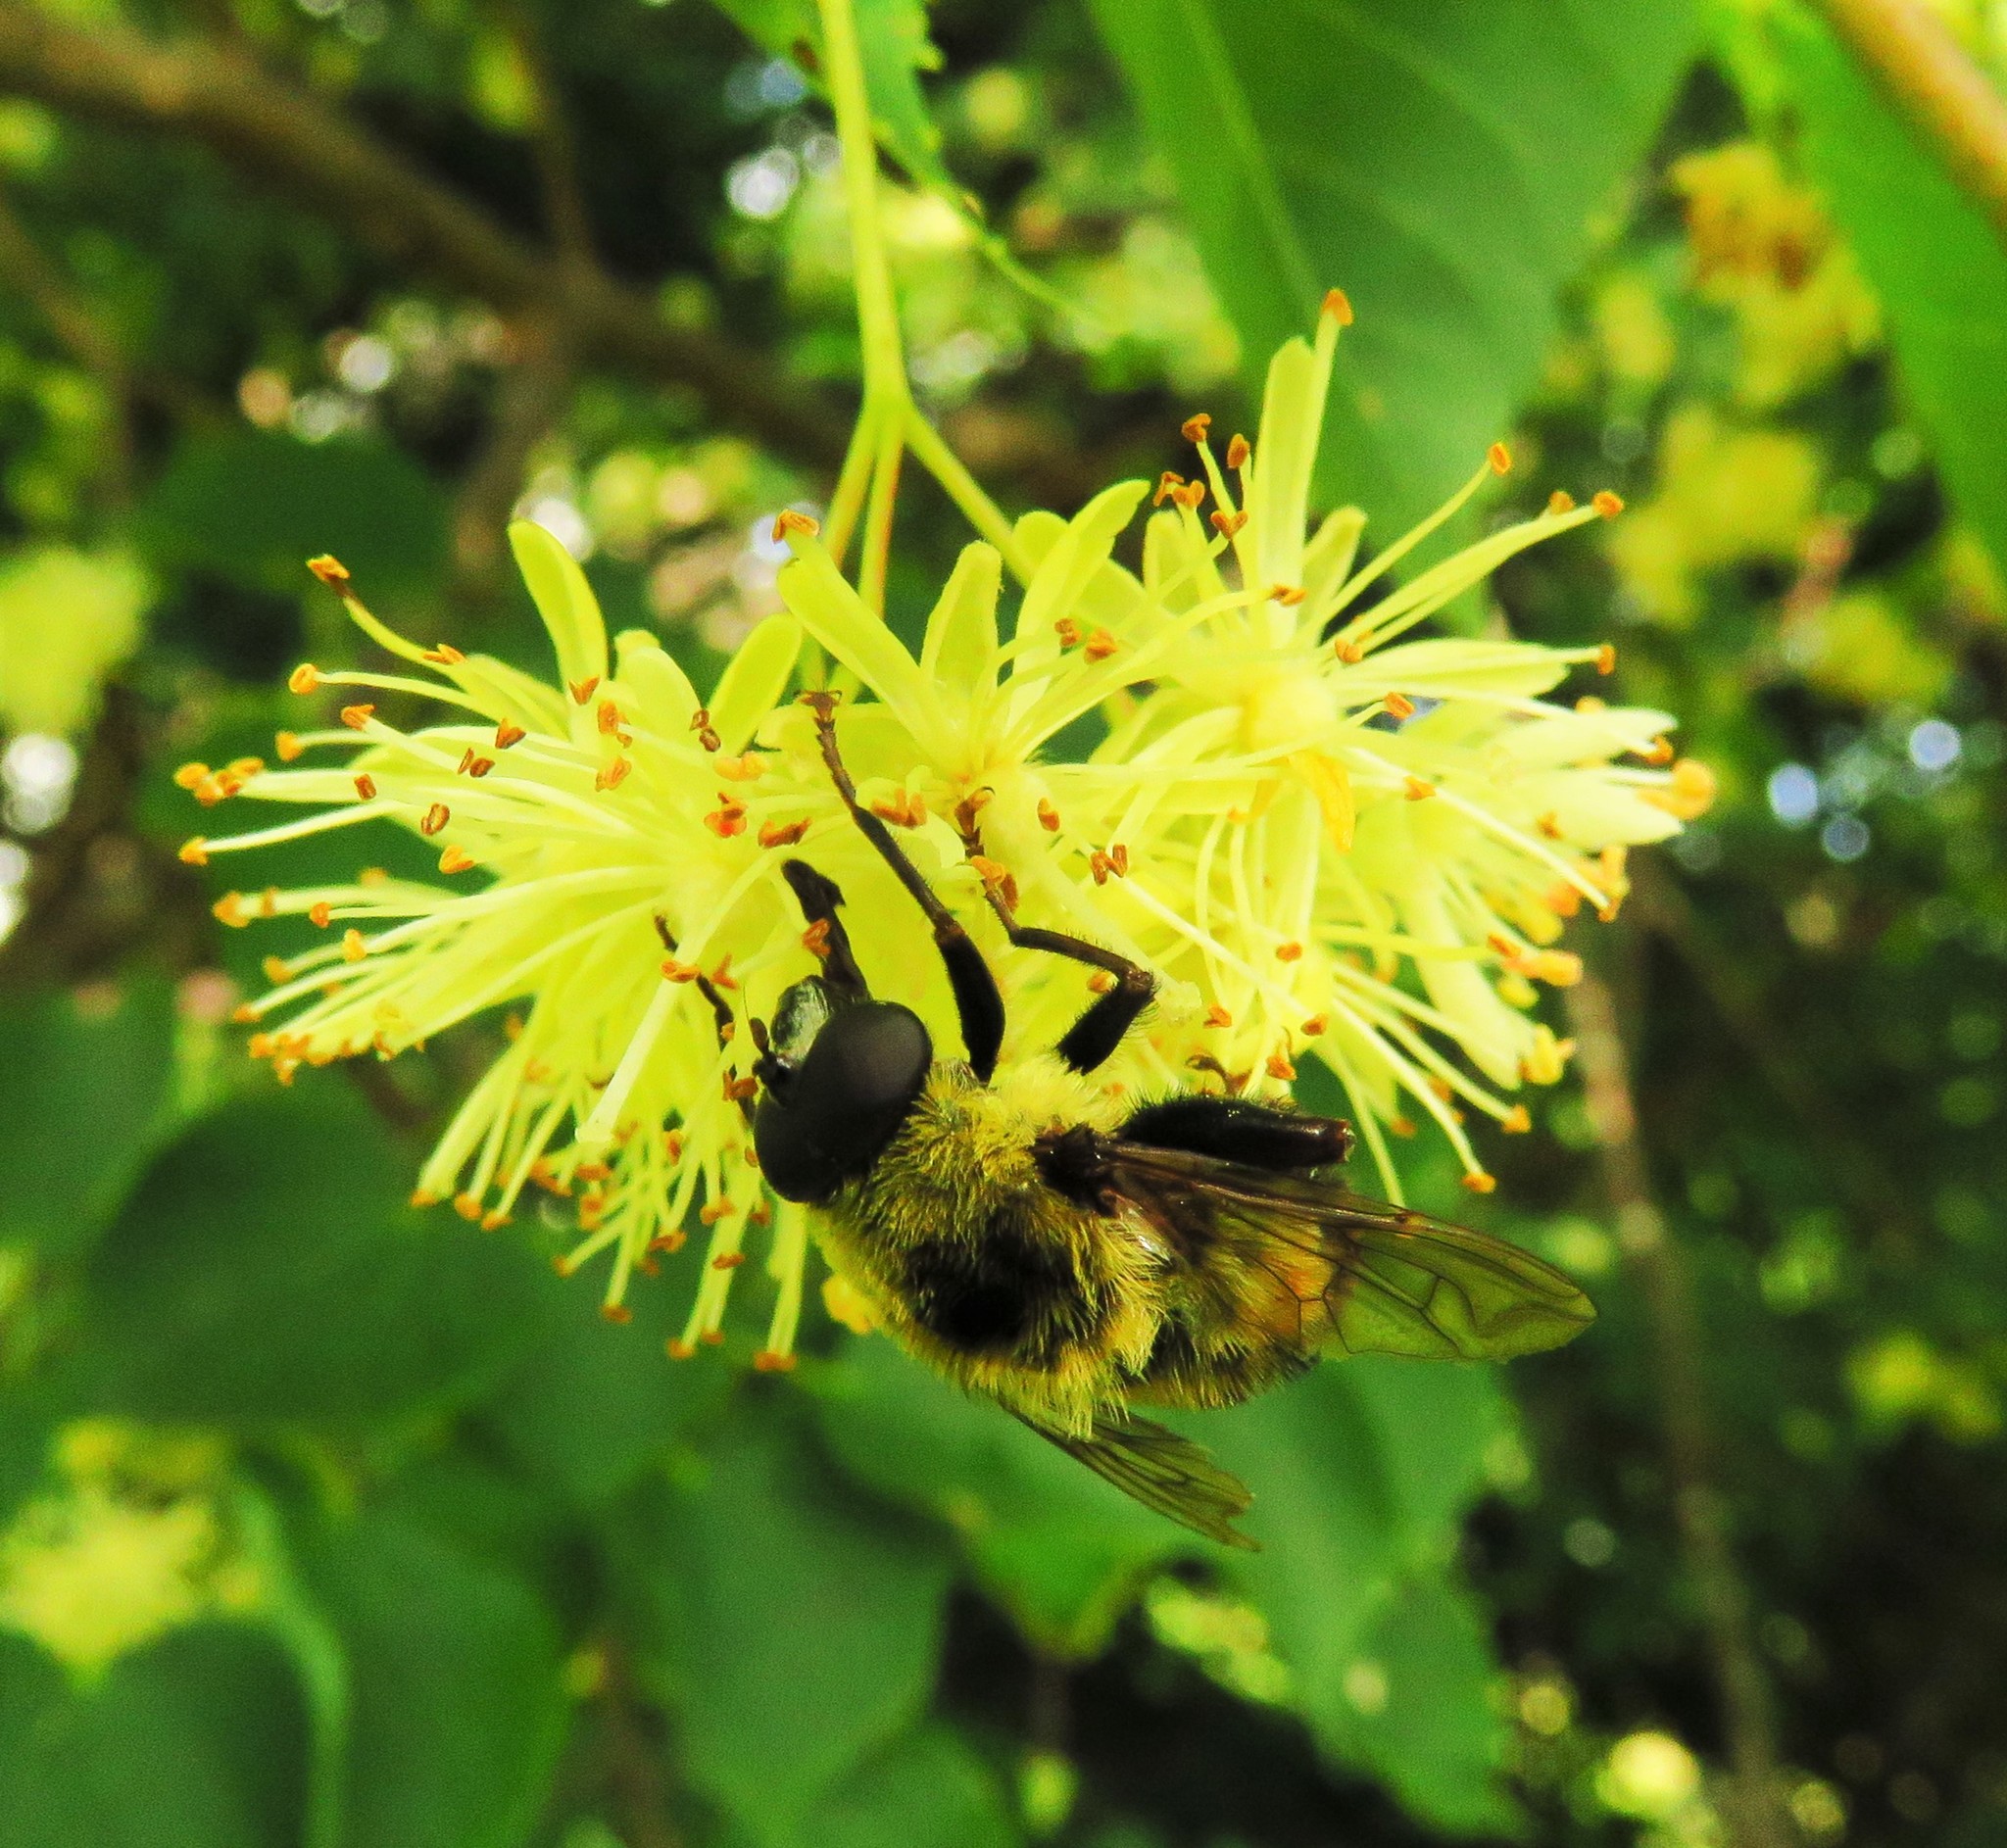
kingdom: Animalia
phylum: Arthropoda
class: Insecta
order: Diptera
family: Syrphidae
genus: Imatisma
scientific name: Imatisma posticata
